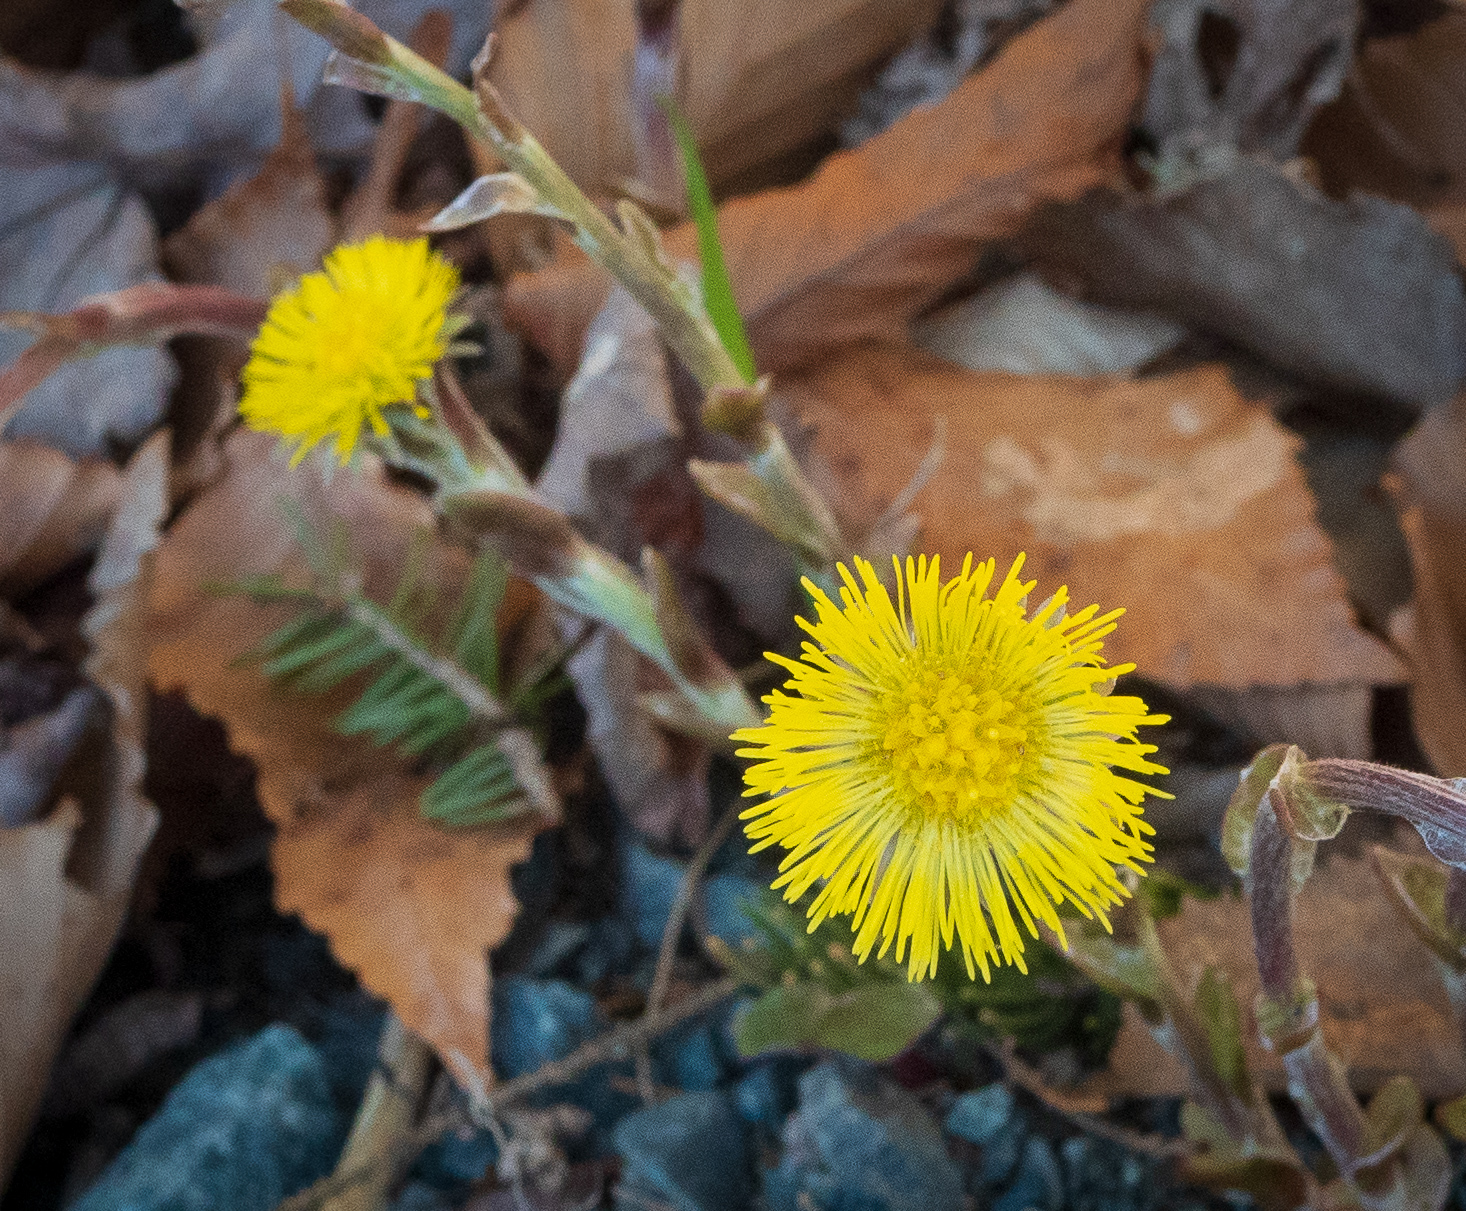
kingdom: Plantae
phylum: Tracheophyta
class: Magnoliopsida
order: Asterales
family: Asteraceae
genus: Tussilago
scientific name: Tussilago farfara
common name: Coltsfoot
